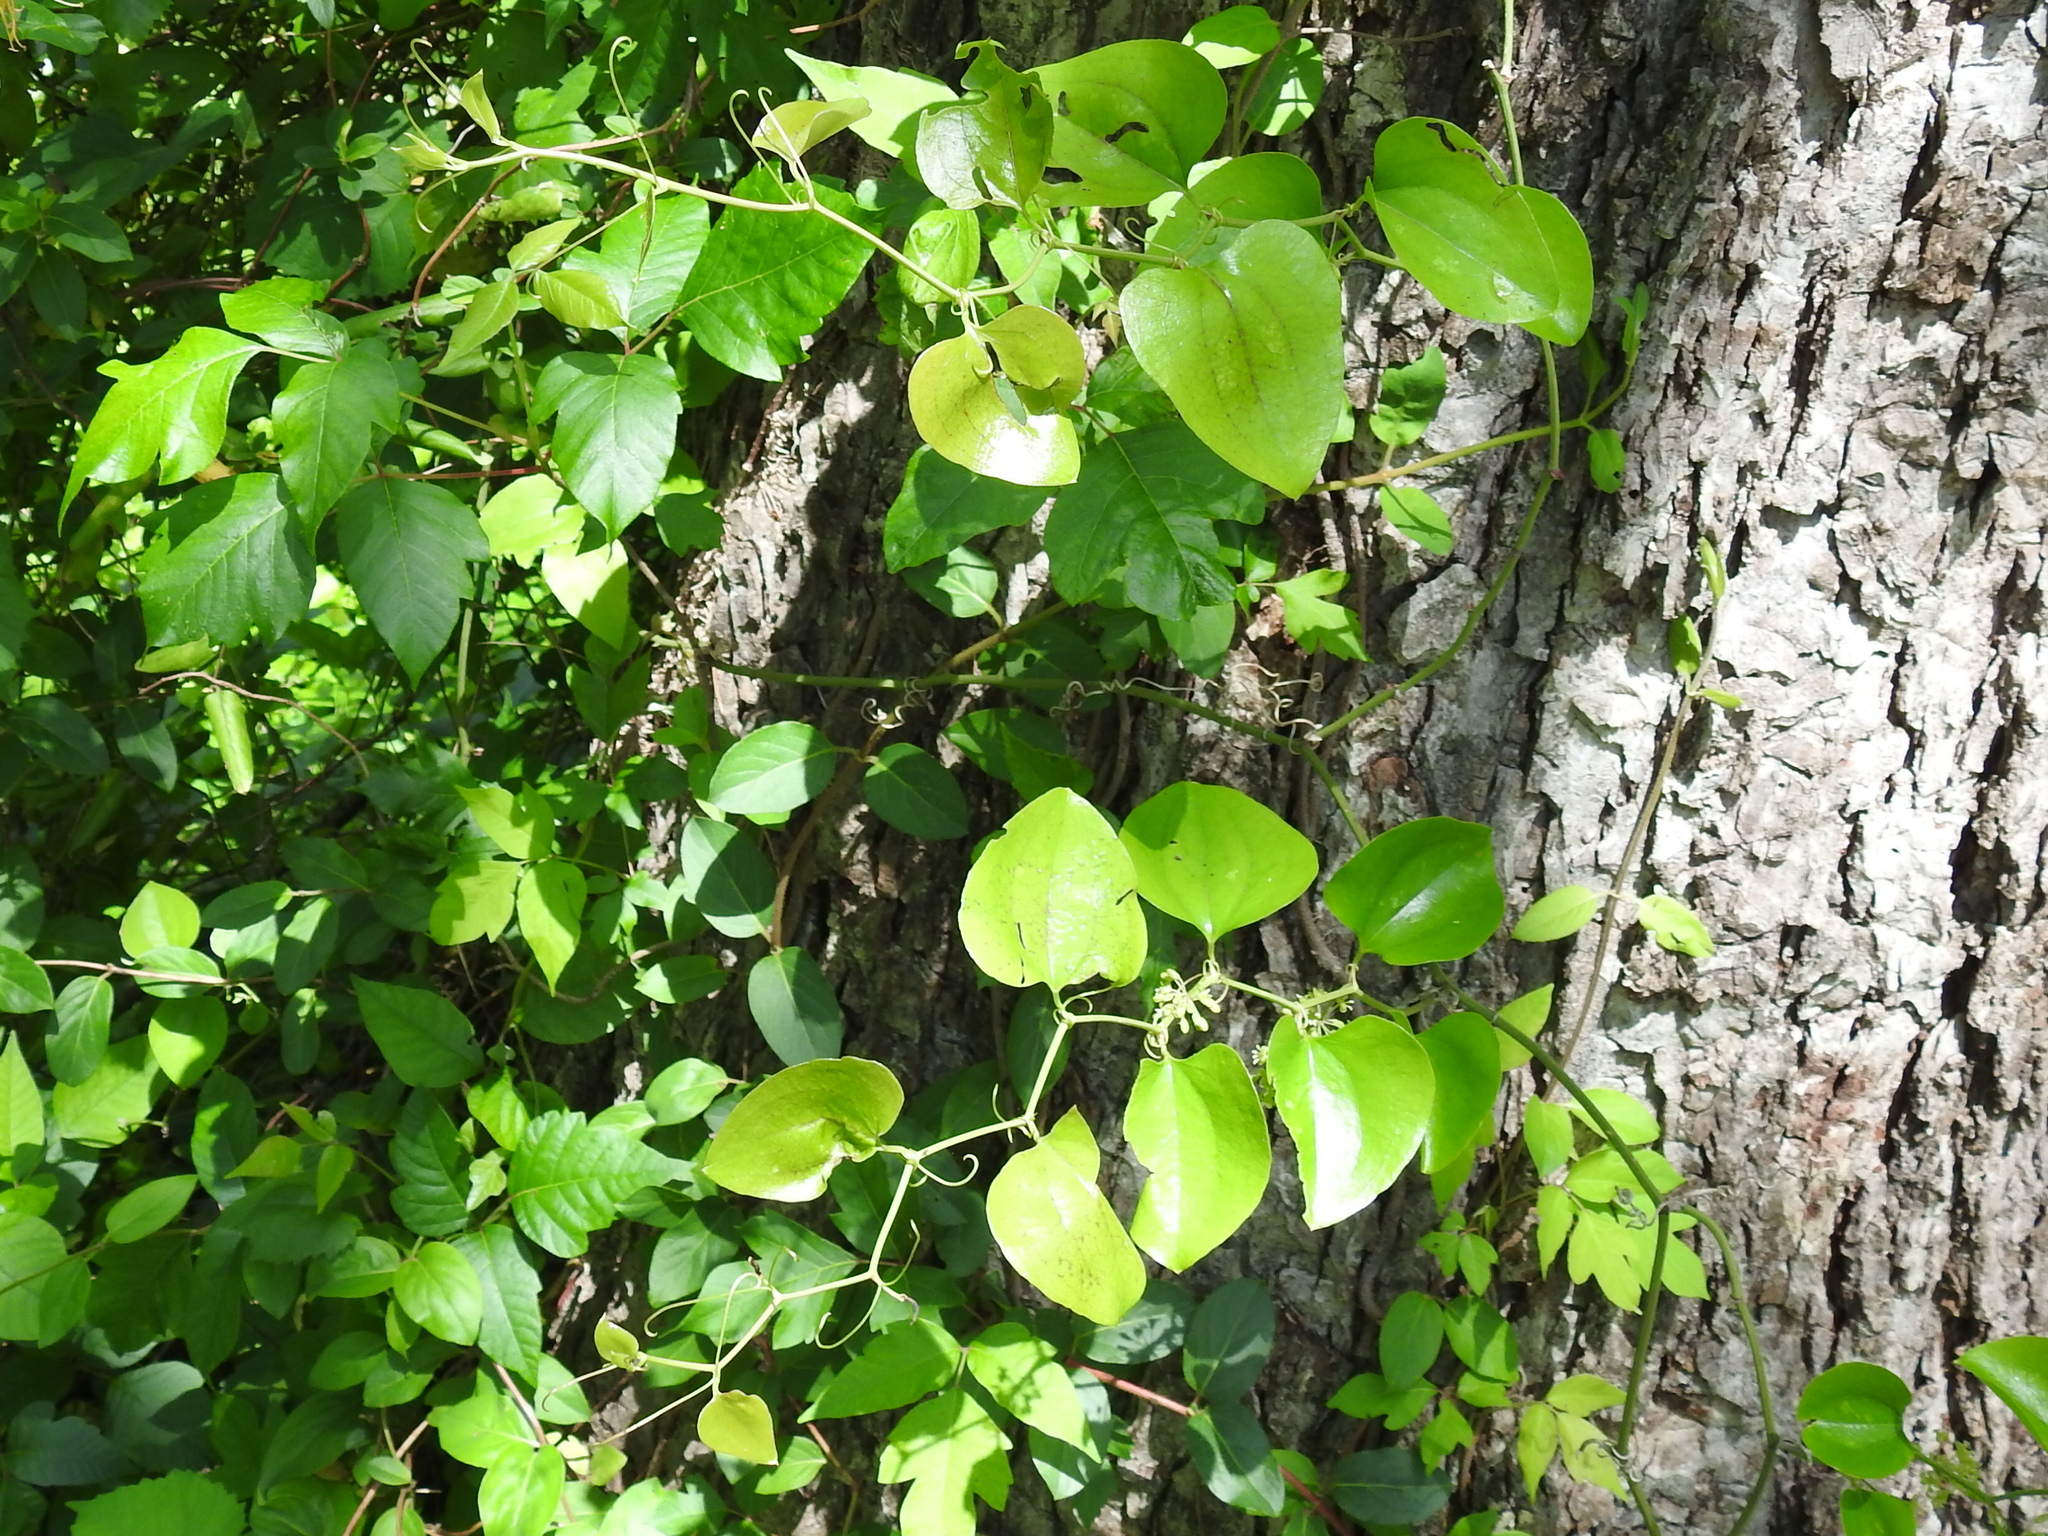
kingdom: Plantae
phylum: Tracheophyta
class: Liliopsida
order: Liliales
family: Smilacaceae
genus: Smilax
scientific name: Smilax bona-nox
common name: Catbrier
